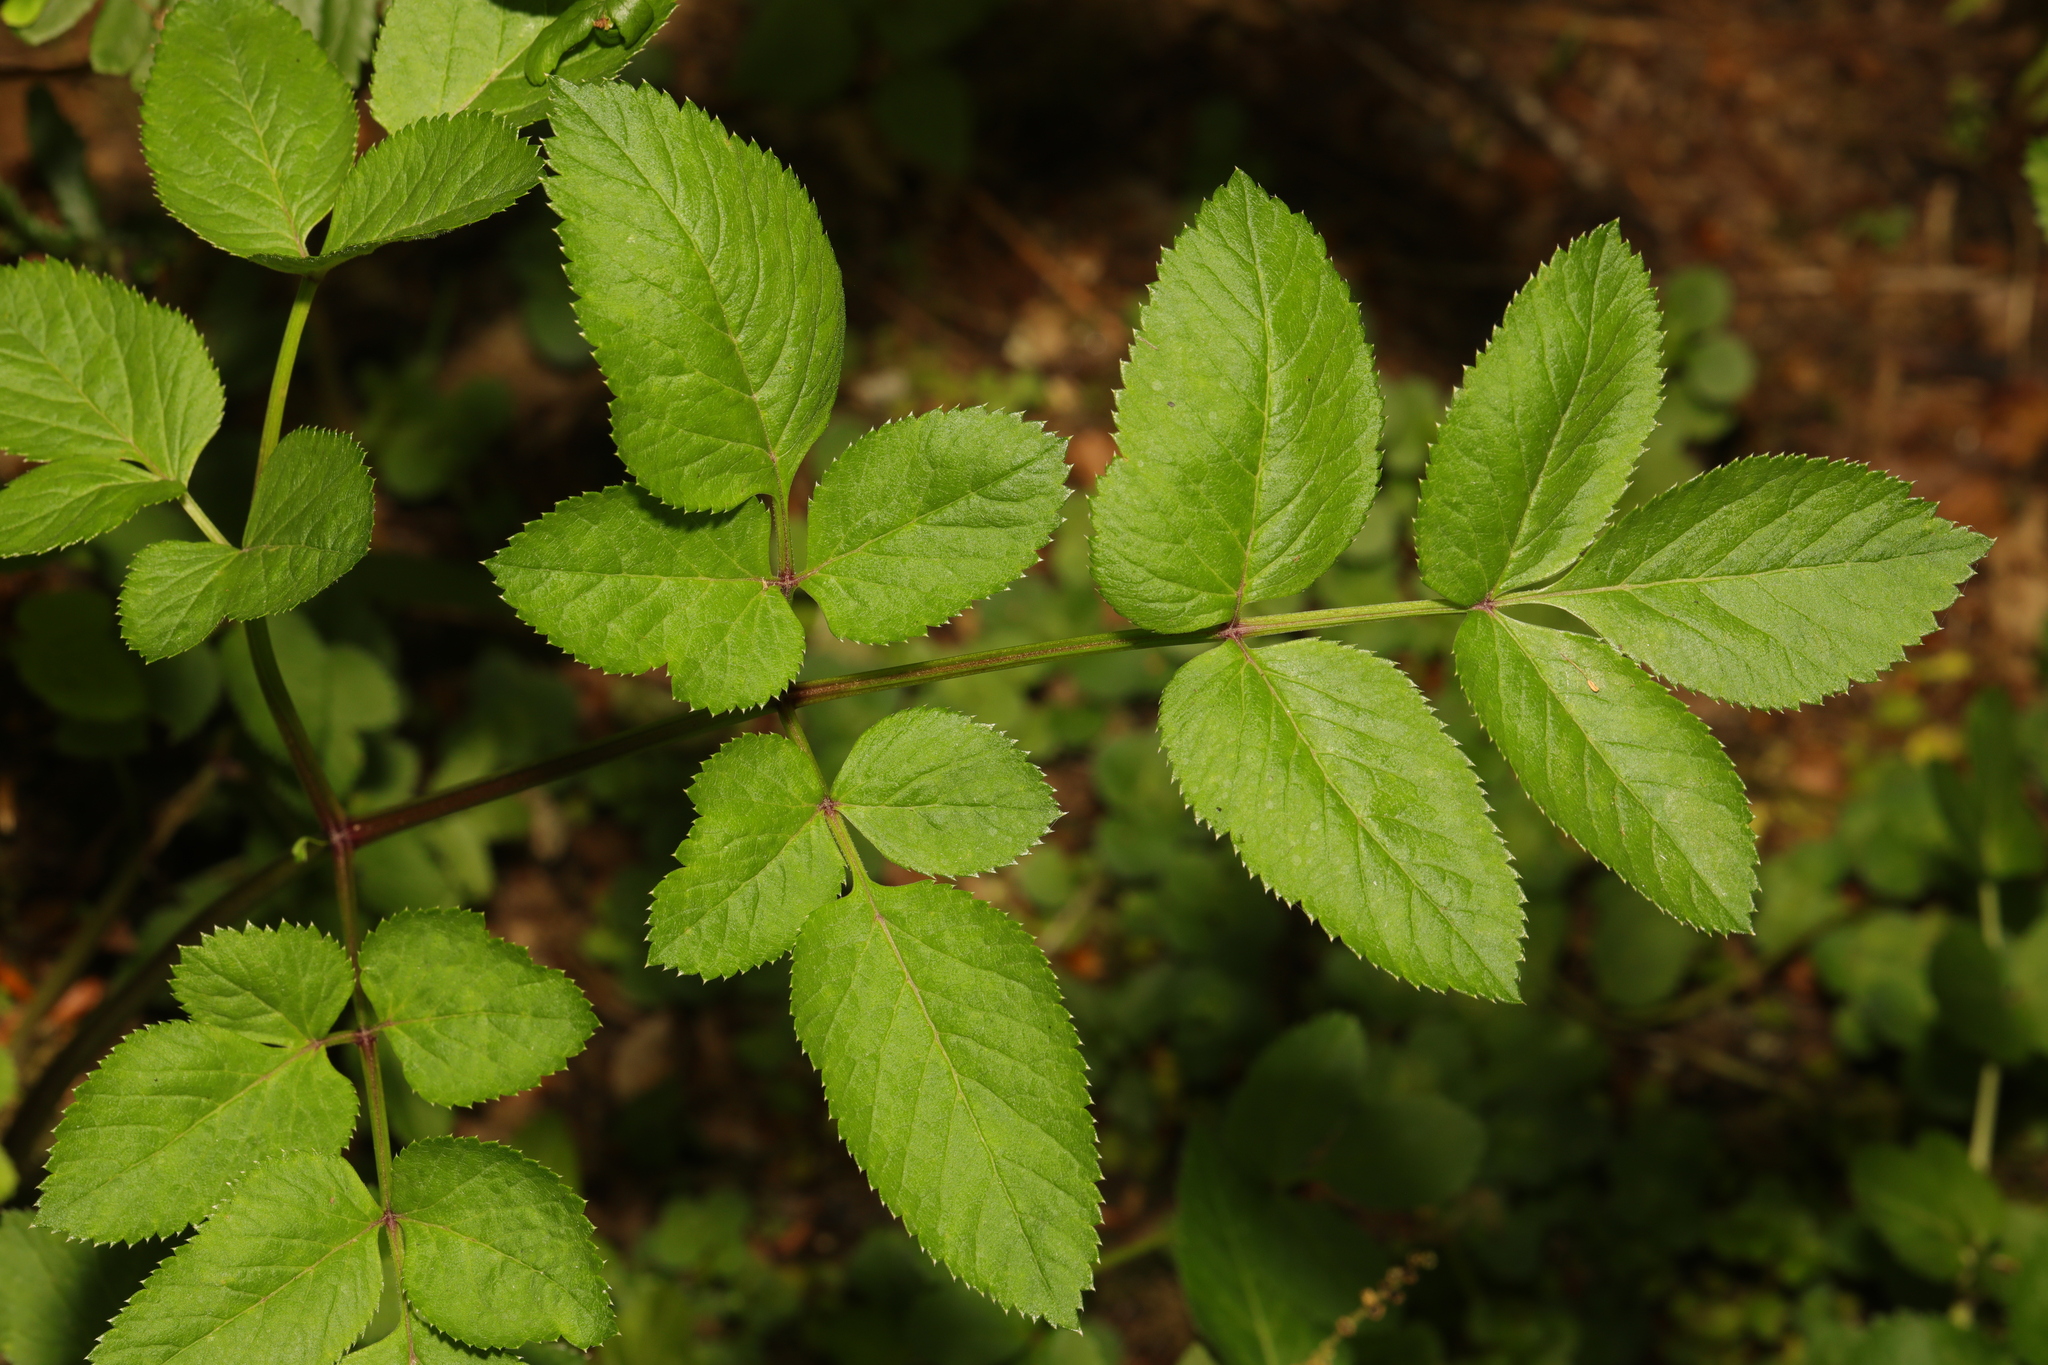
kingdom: Plantae
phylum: Tracheophyta
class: Magnoliopsida
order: Apiales
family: Apiaceae
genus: Angelica
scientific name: Angelica sylvestris
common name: Wild angelica
